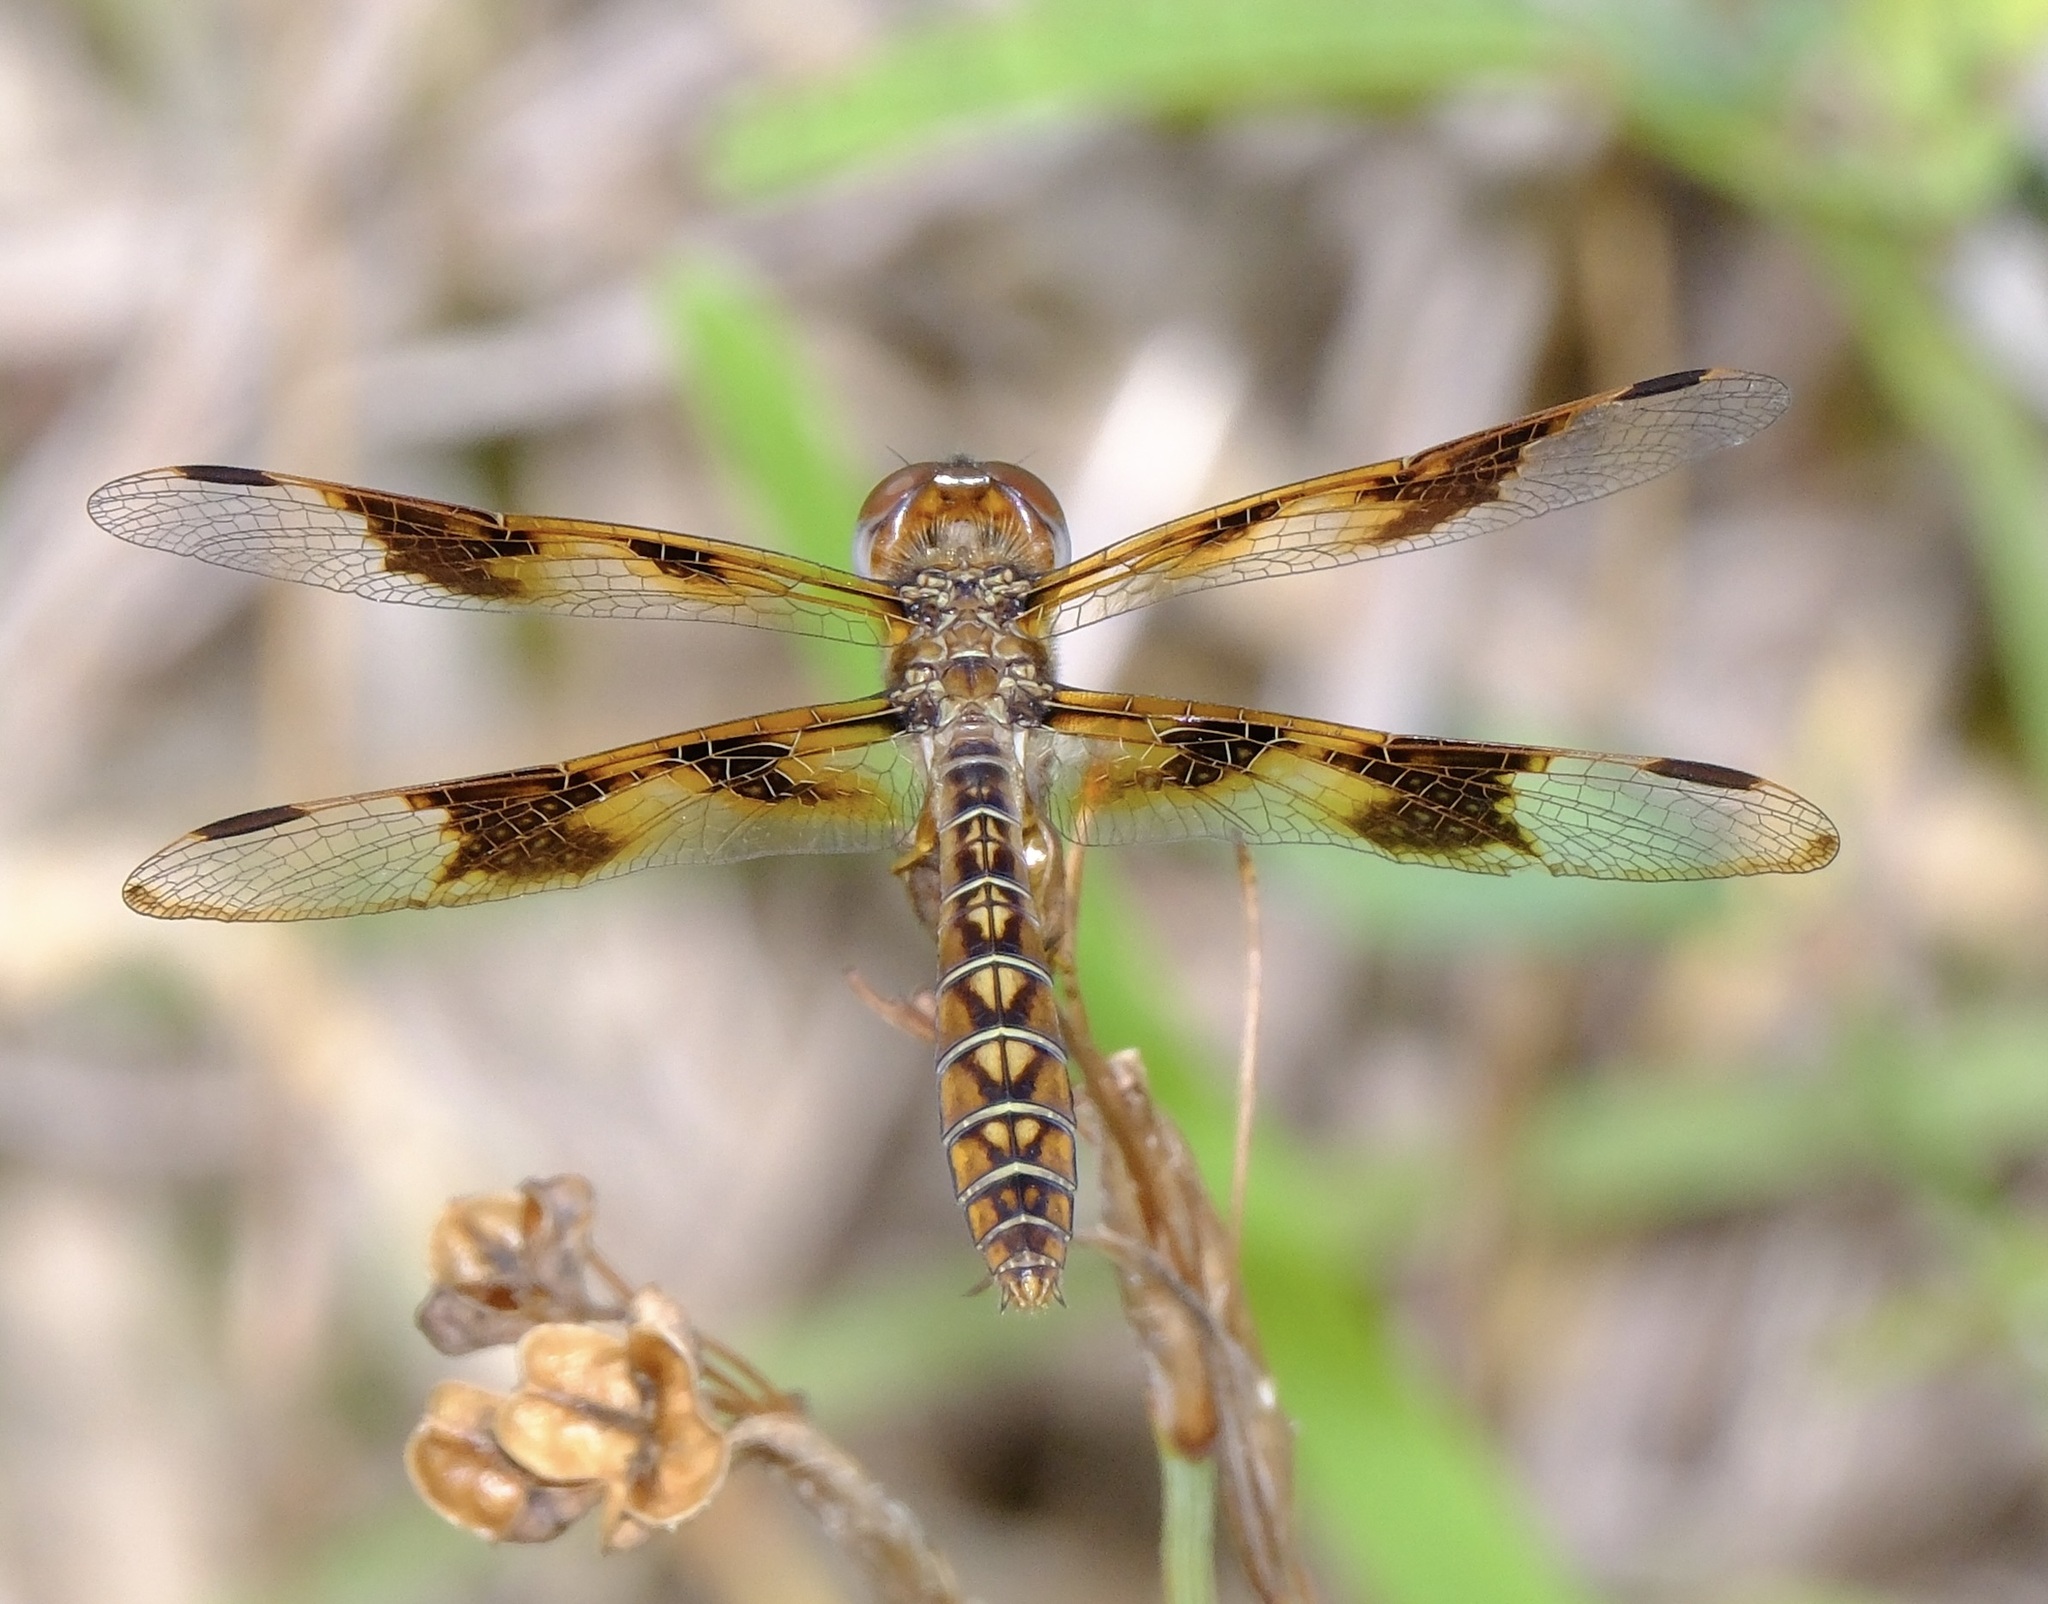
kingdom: Animalia
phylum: Arthropoda
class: Insecta
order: Odonata
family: Libellulidae
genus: Perithemis
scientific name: Perithemis tenera
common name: Eastern amberwing
